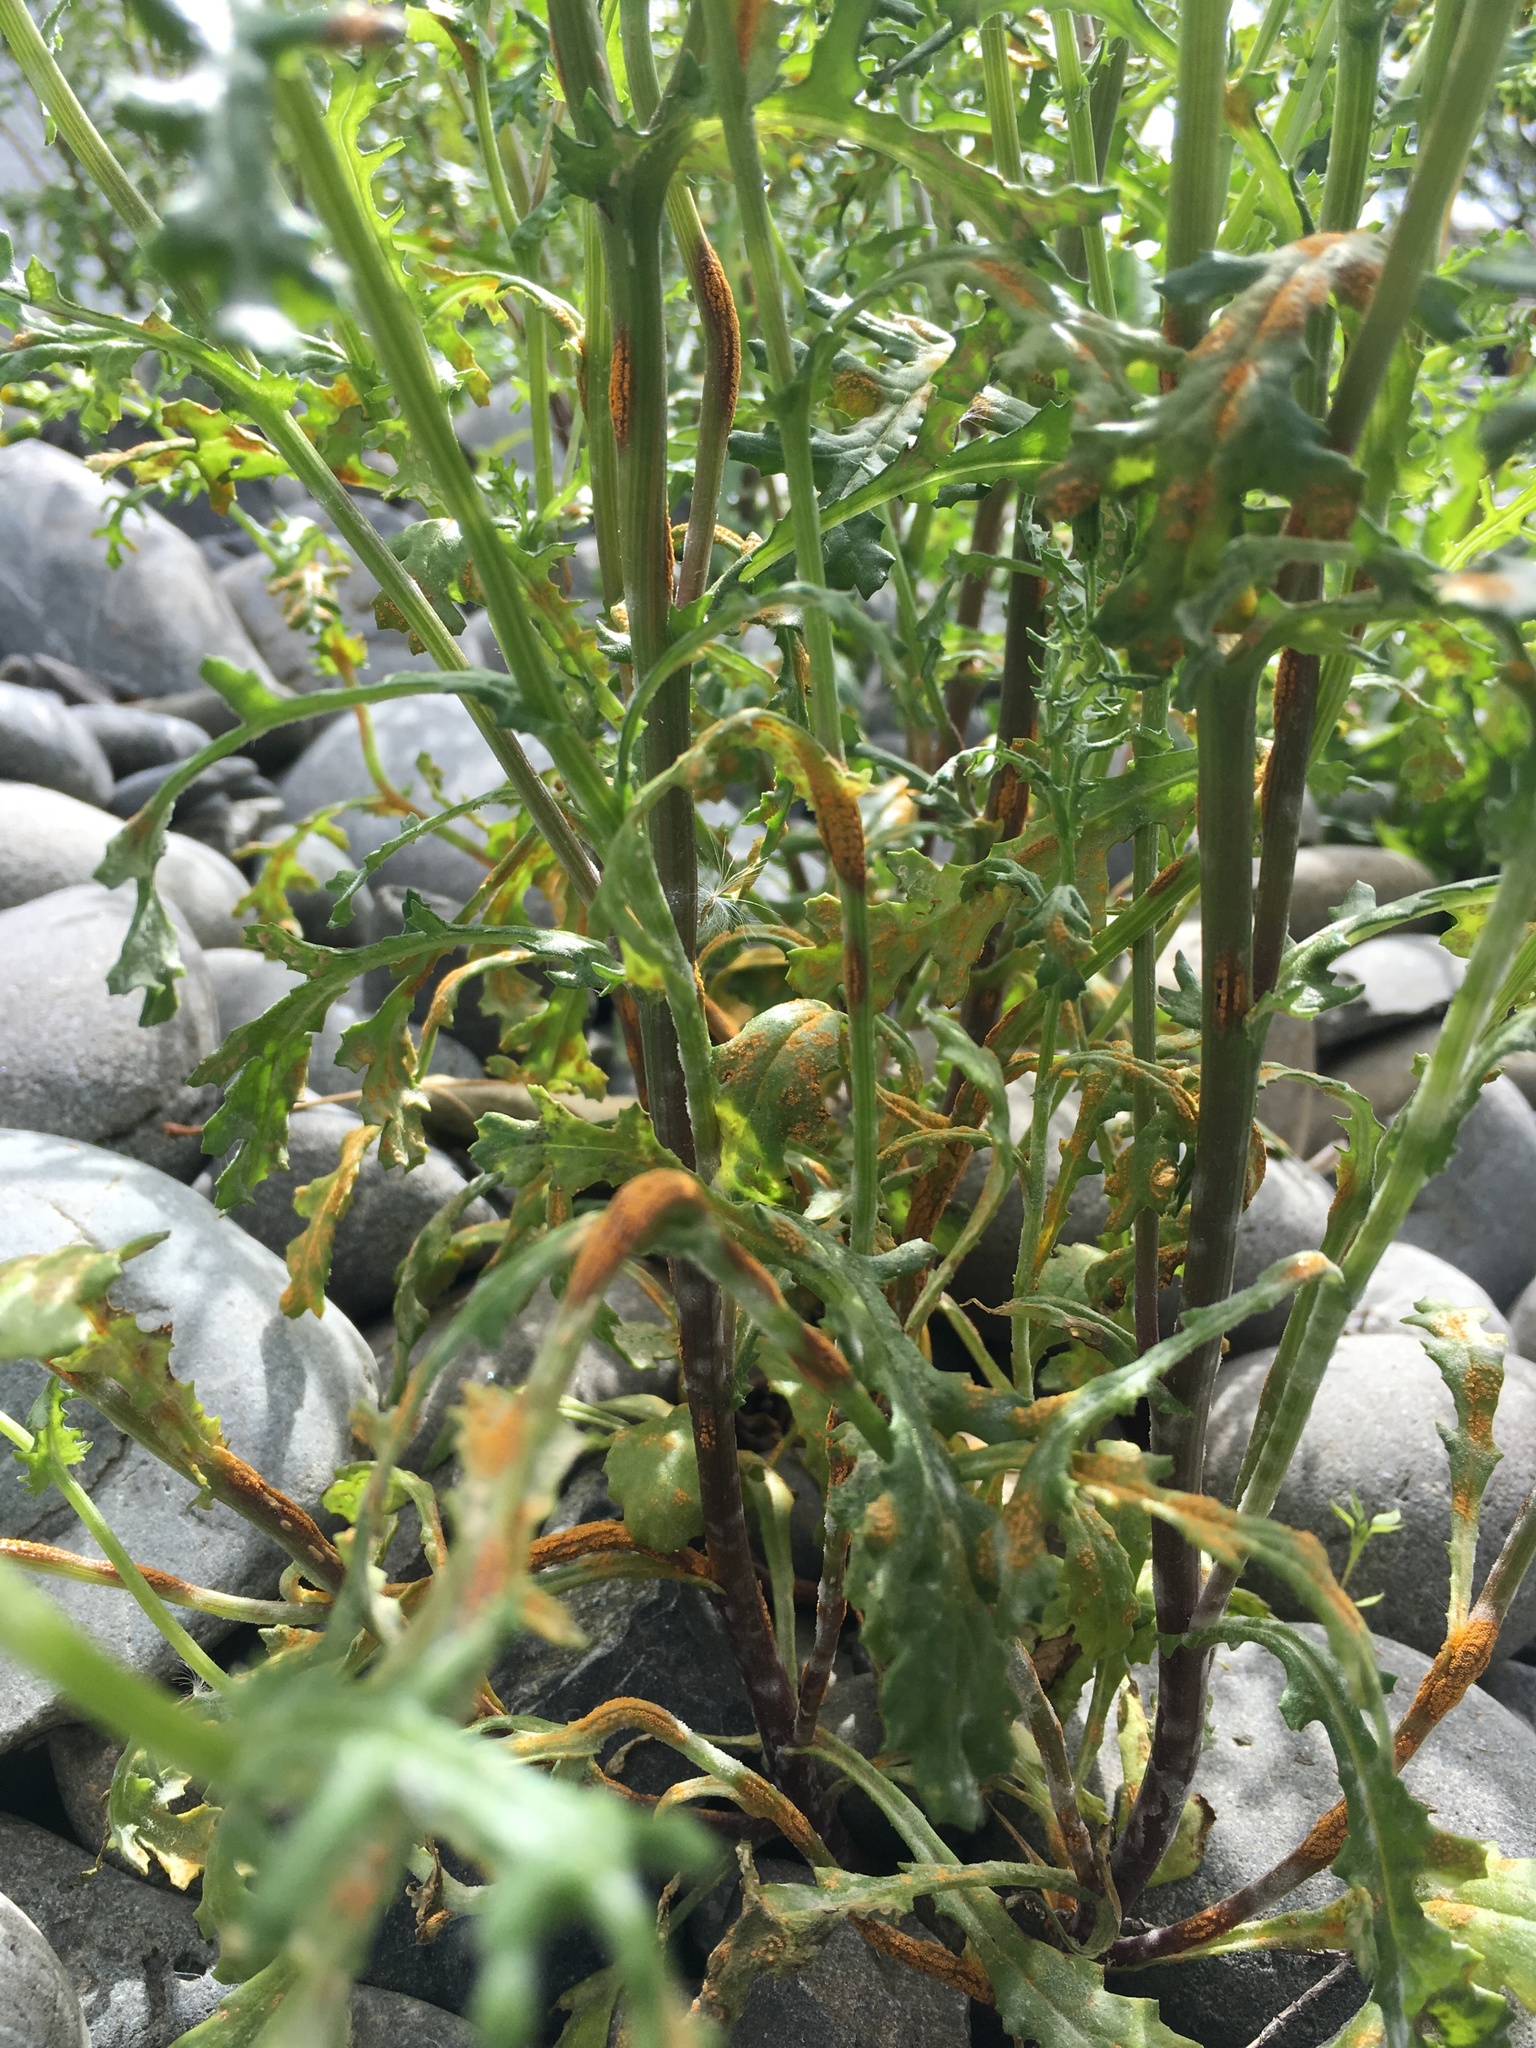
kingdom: Fungi
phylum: Basidiomycota
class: Pucciniomycetes
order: Pucciniales
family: Pucciniaceae
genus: Puccinia
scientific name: Puccinia lagenophorae
